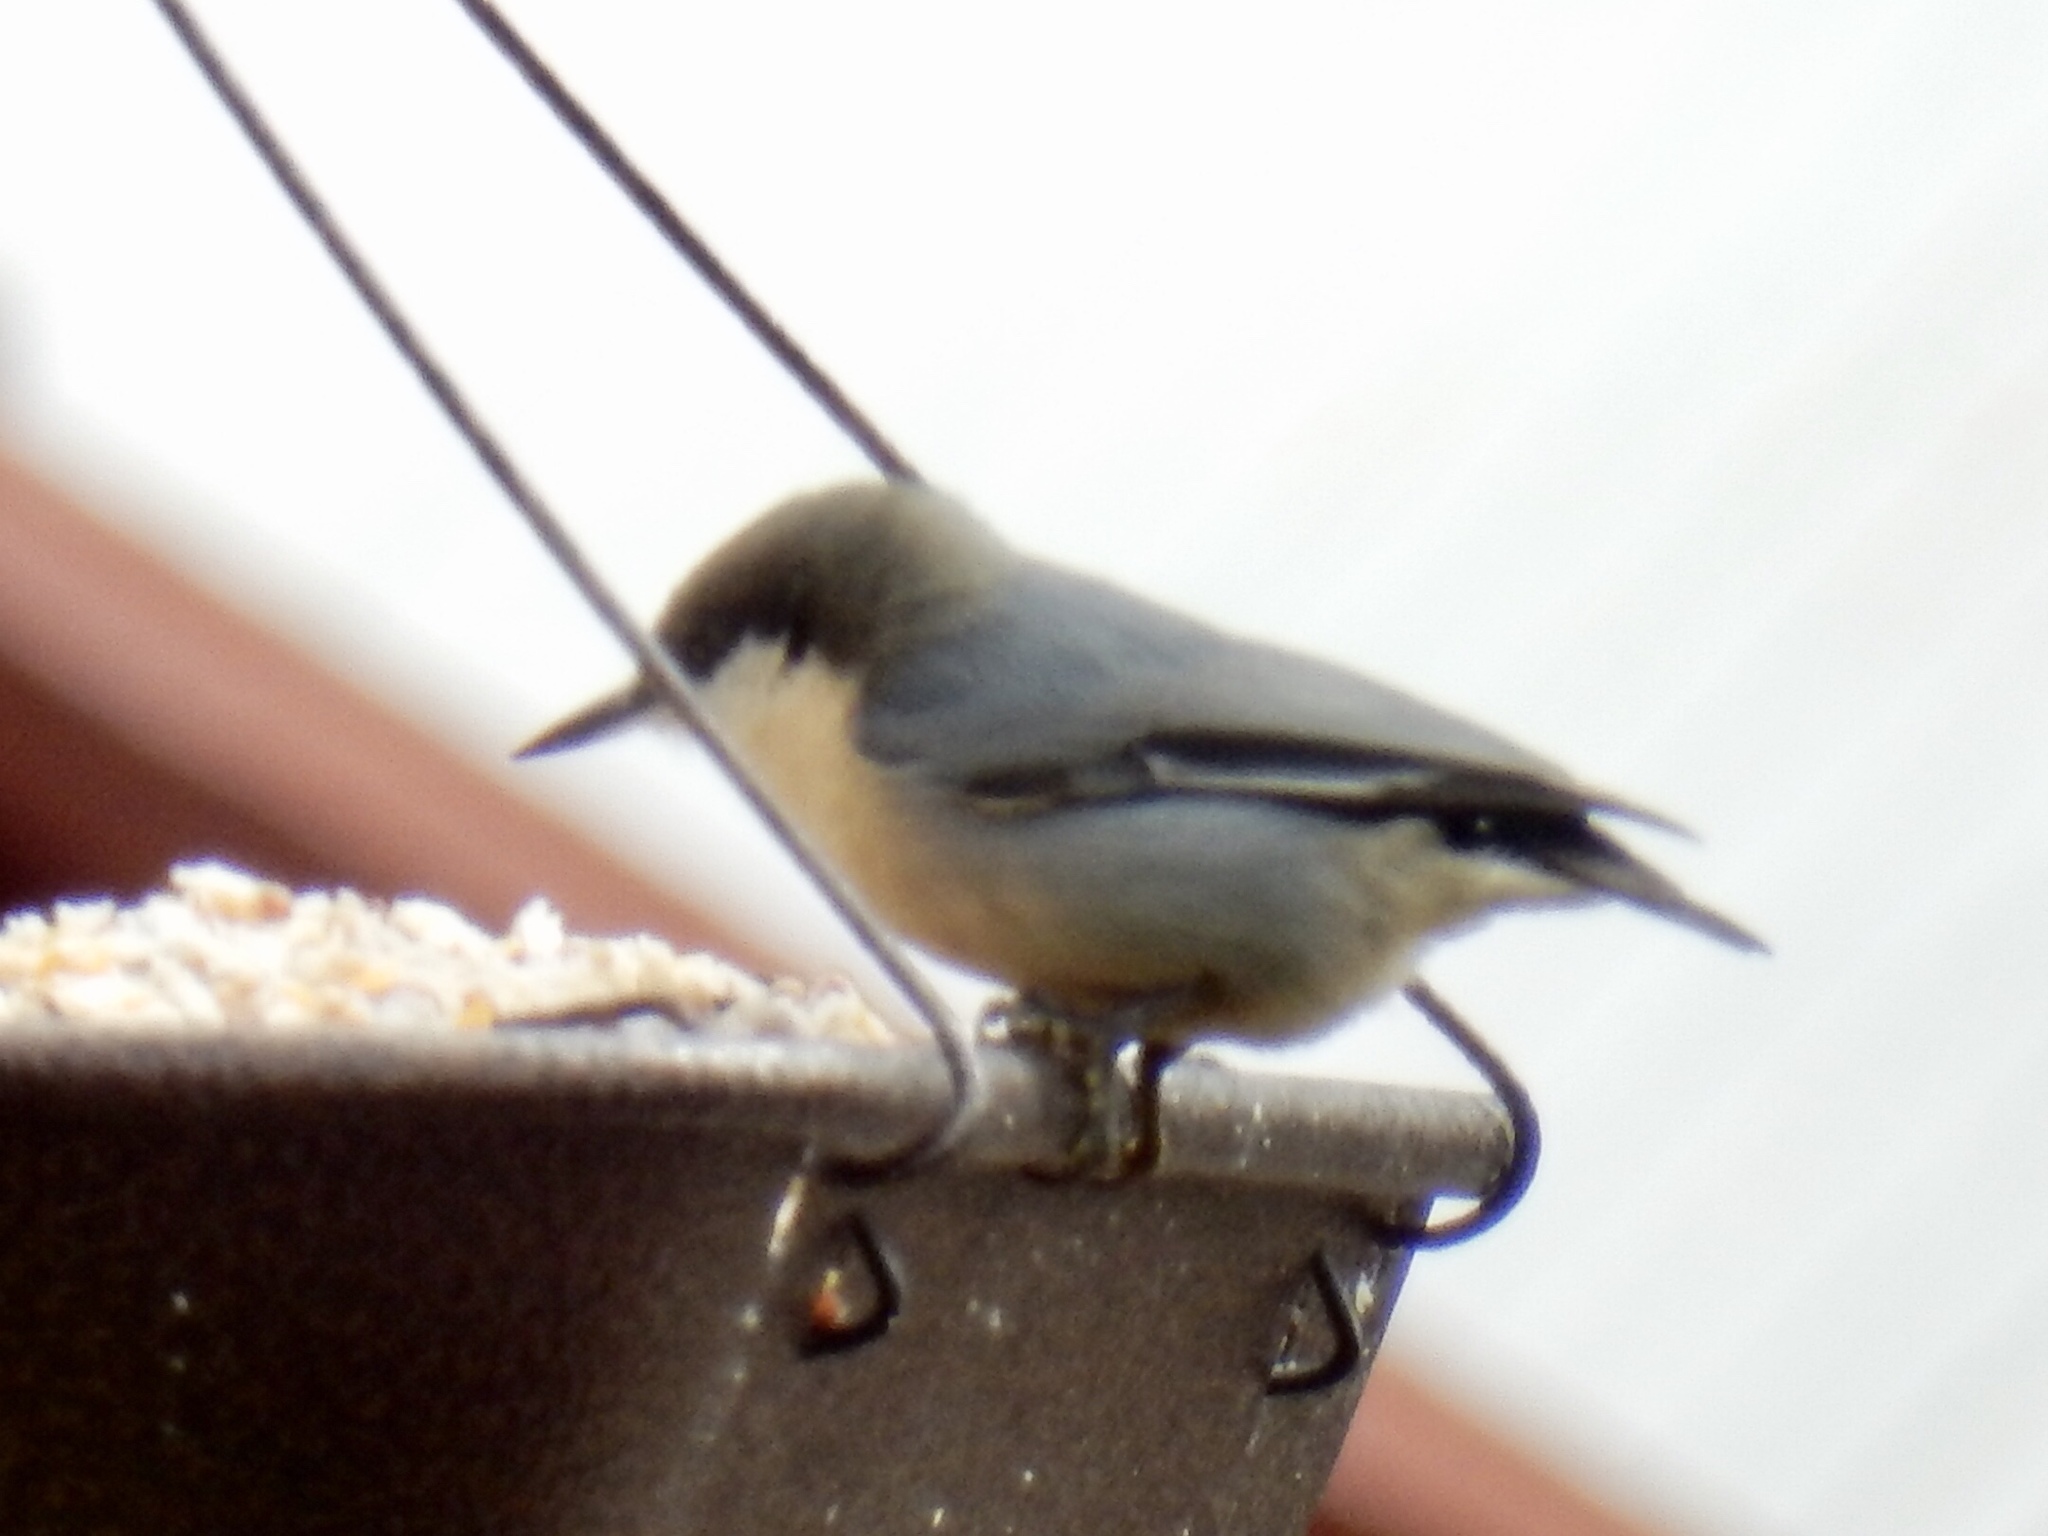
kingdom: Animalia
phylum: Chordata
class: Aves
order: Passeriformes
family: Sittidae
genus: Sitta
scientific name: Sitta pygmaea
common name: Pygmy nuthatch
